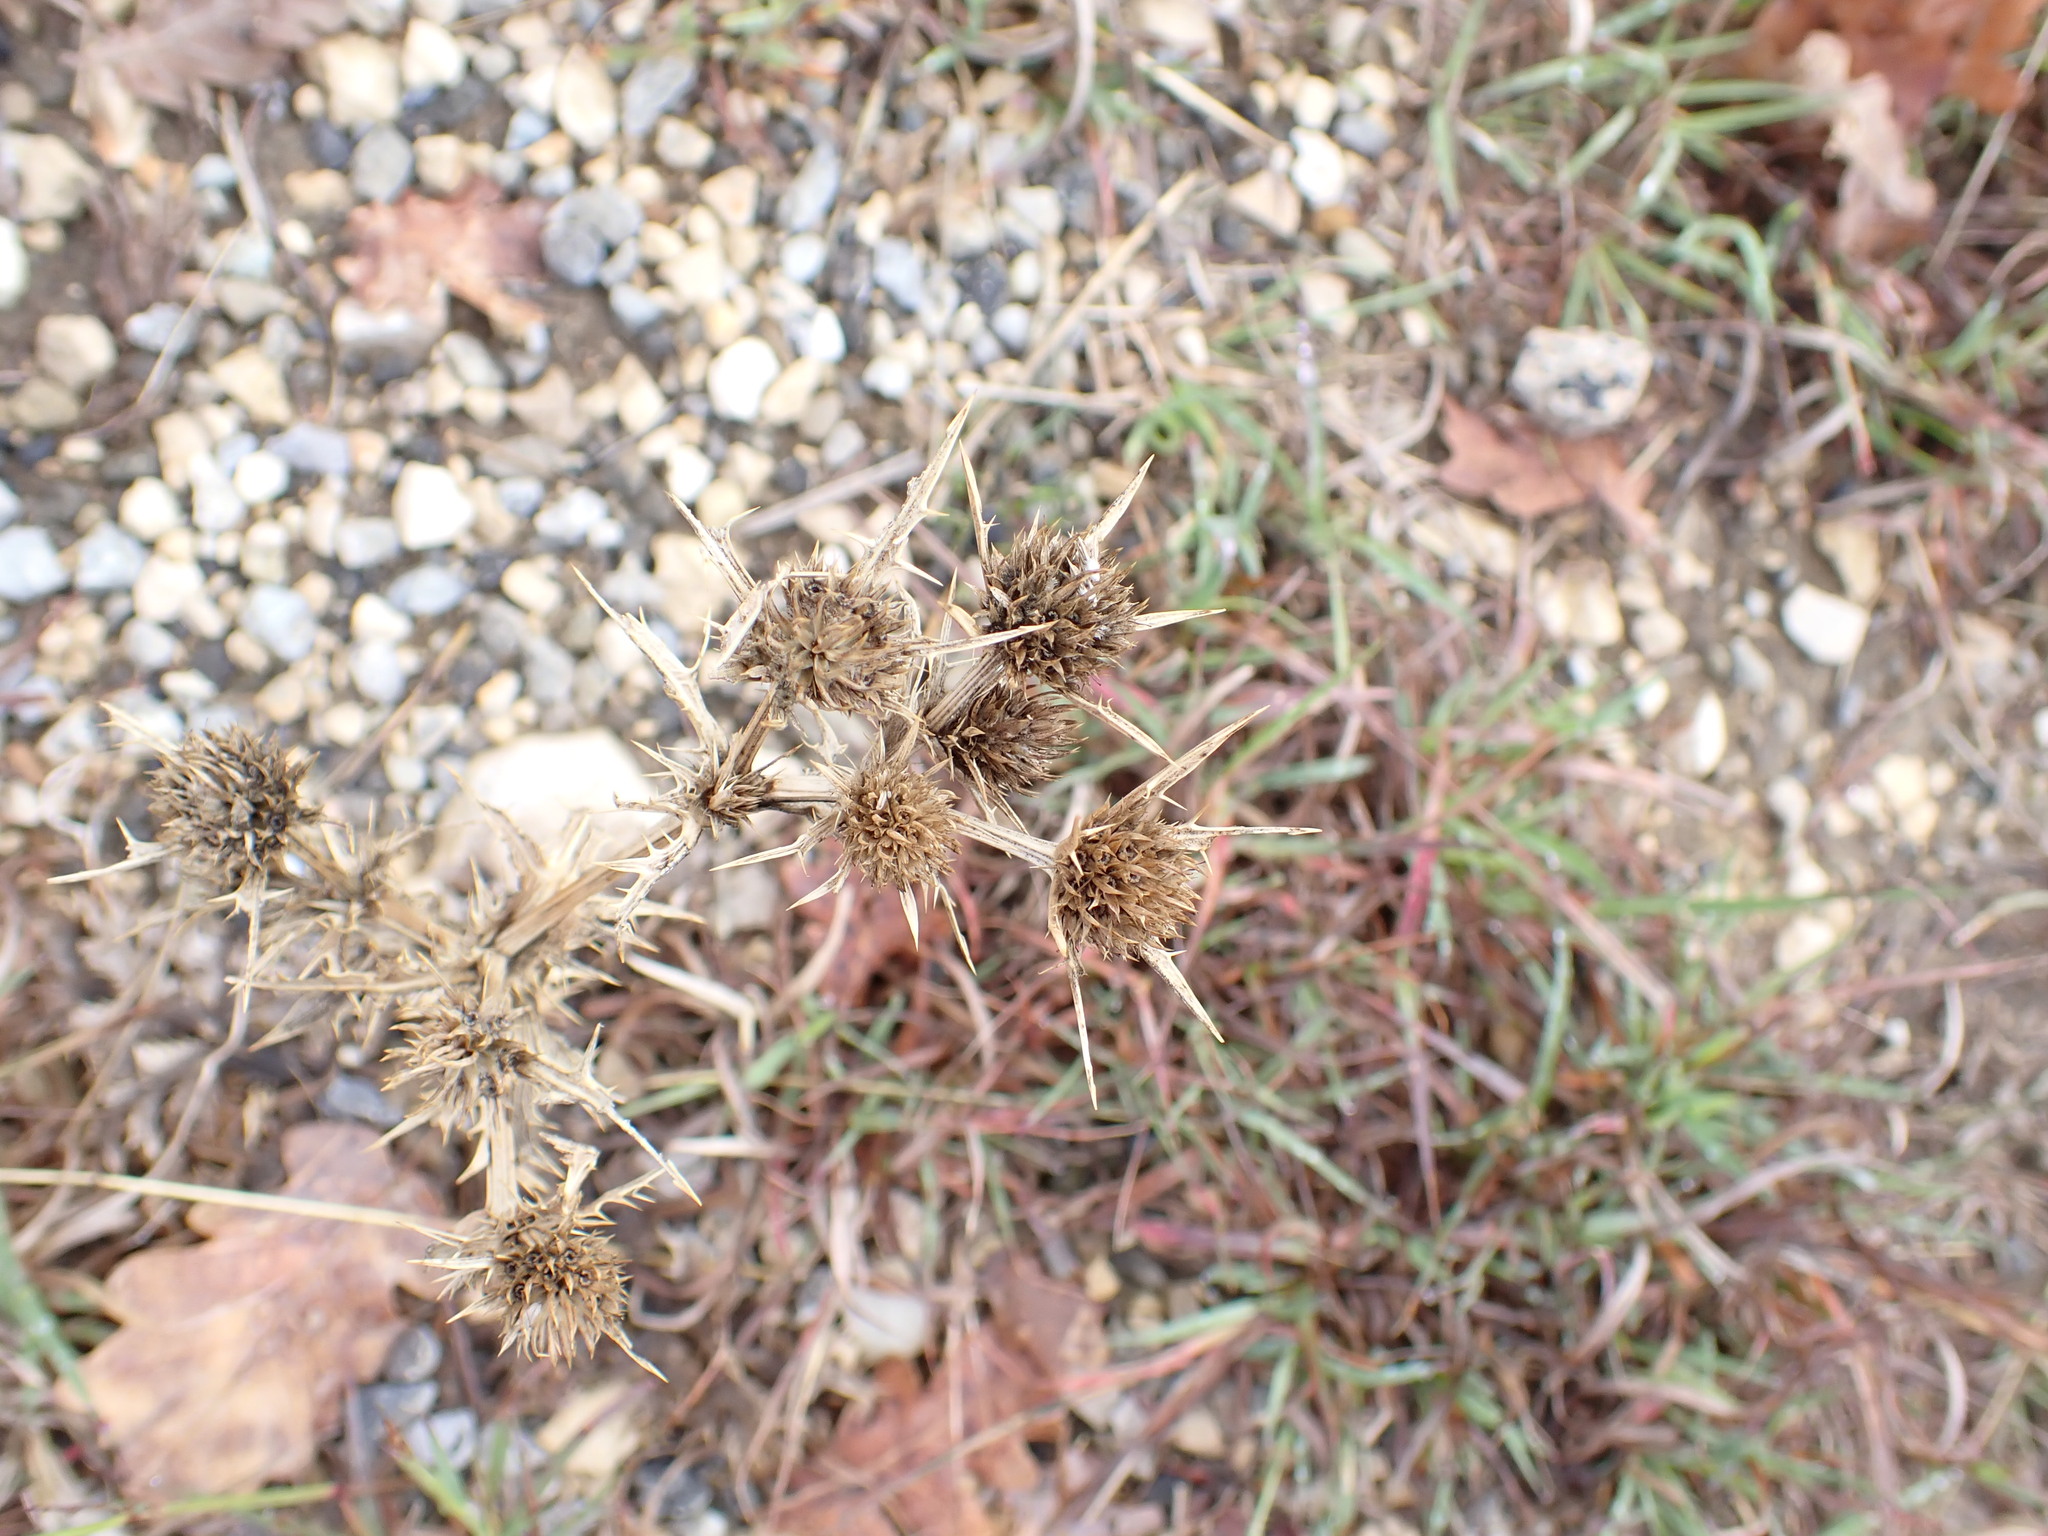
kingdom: Plantae
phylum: Tracheophyta
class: Magnoliopsida
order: Apiales
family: Apiaceae
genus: Eryngium
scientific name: Eryngium campestre
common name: Field eryngo
